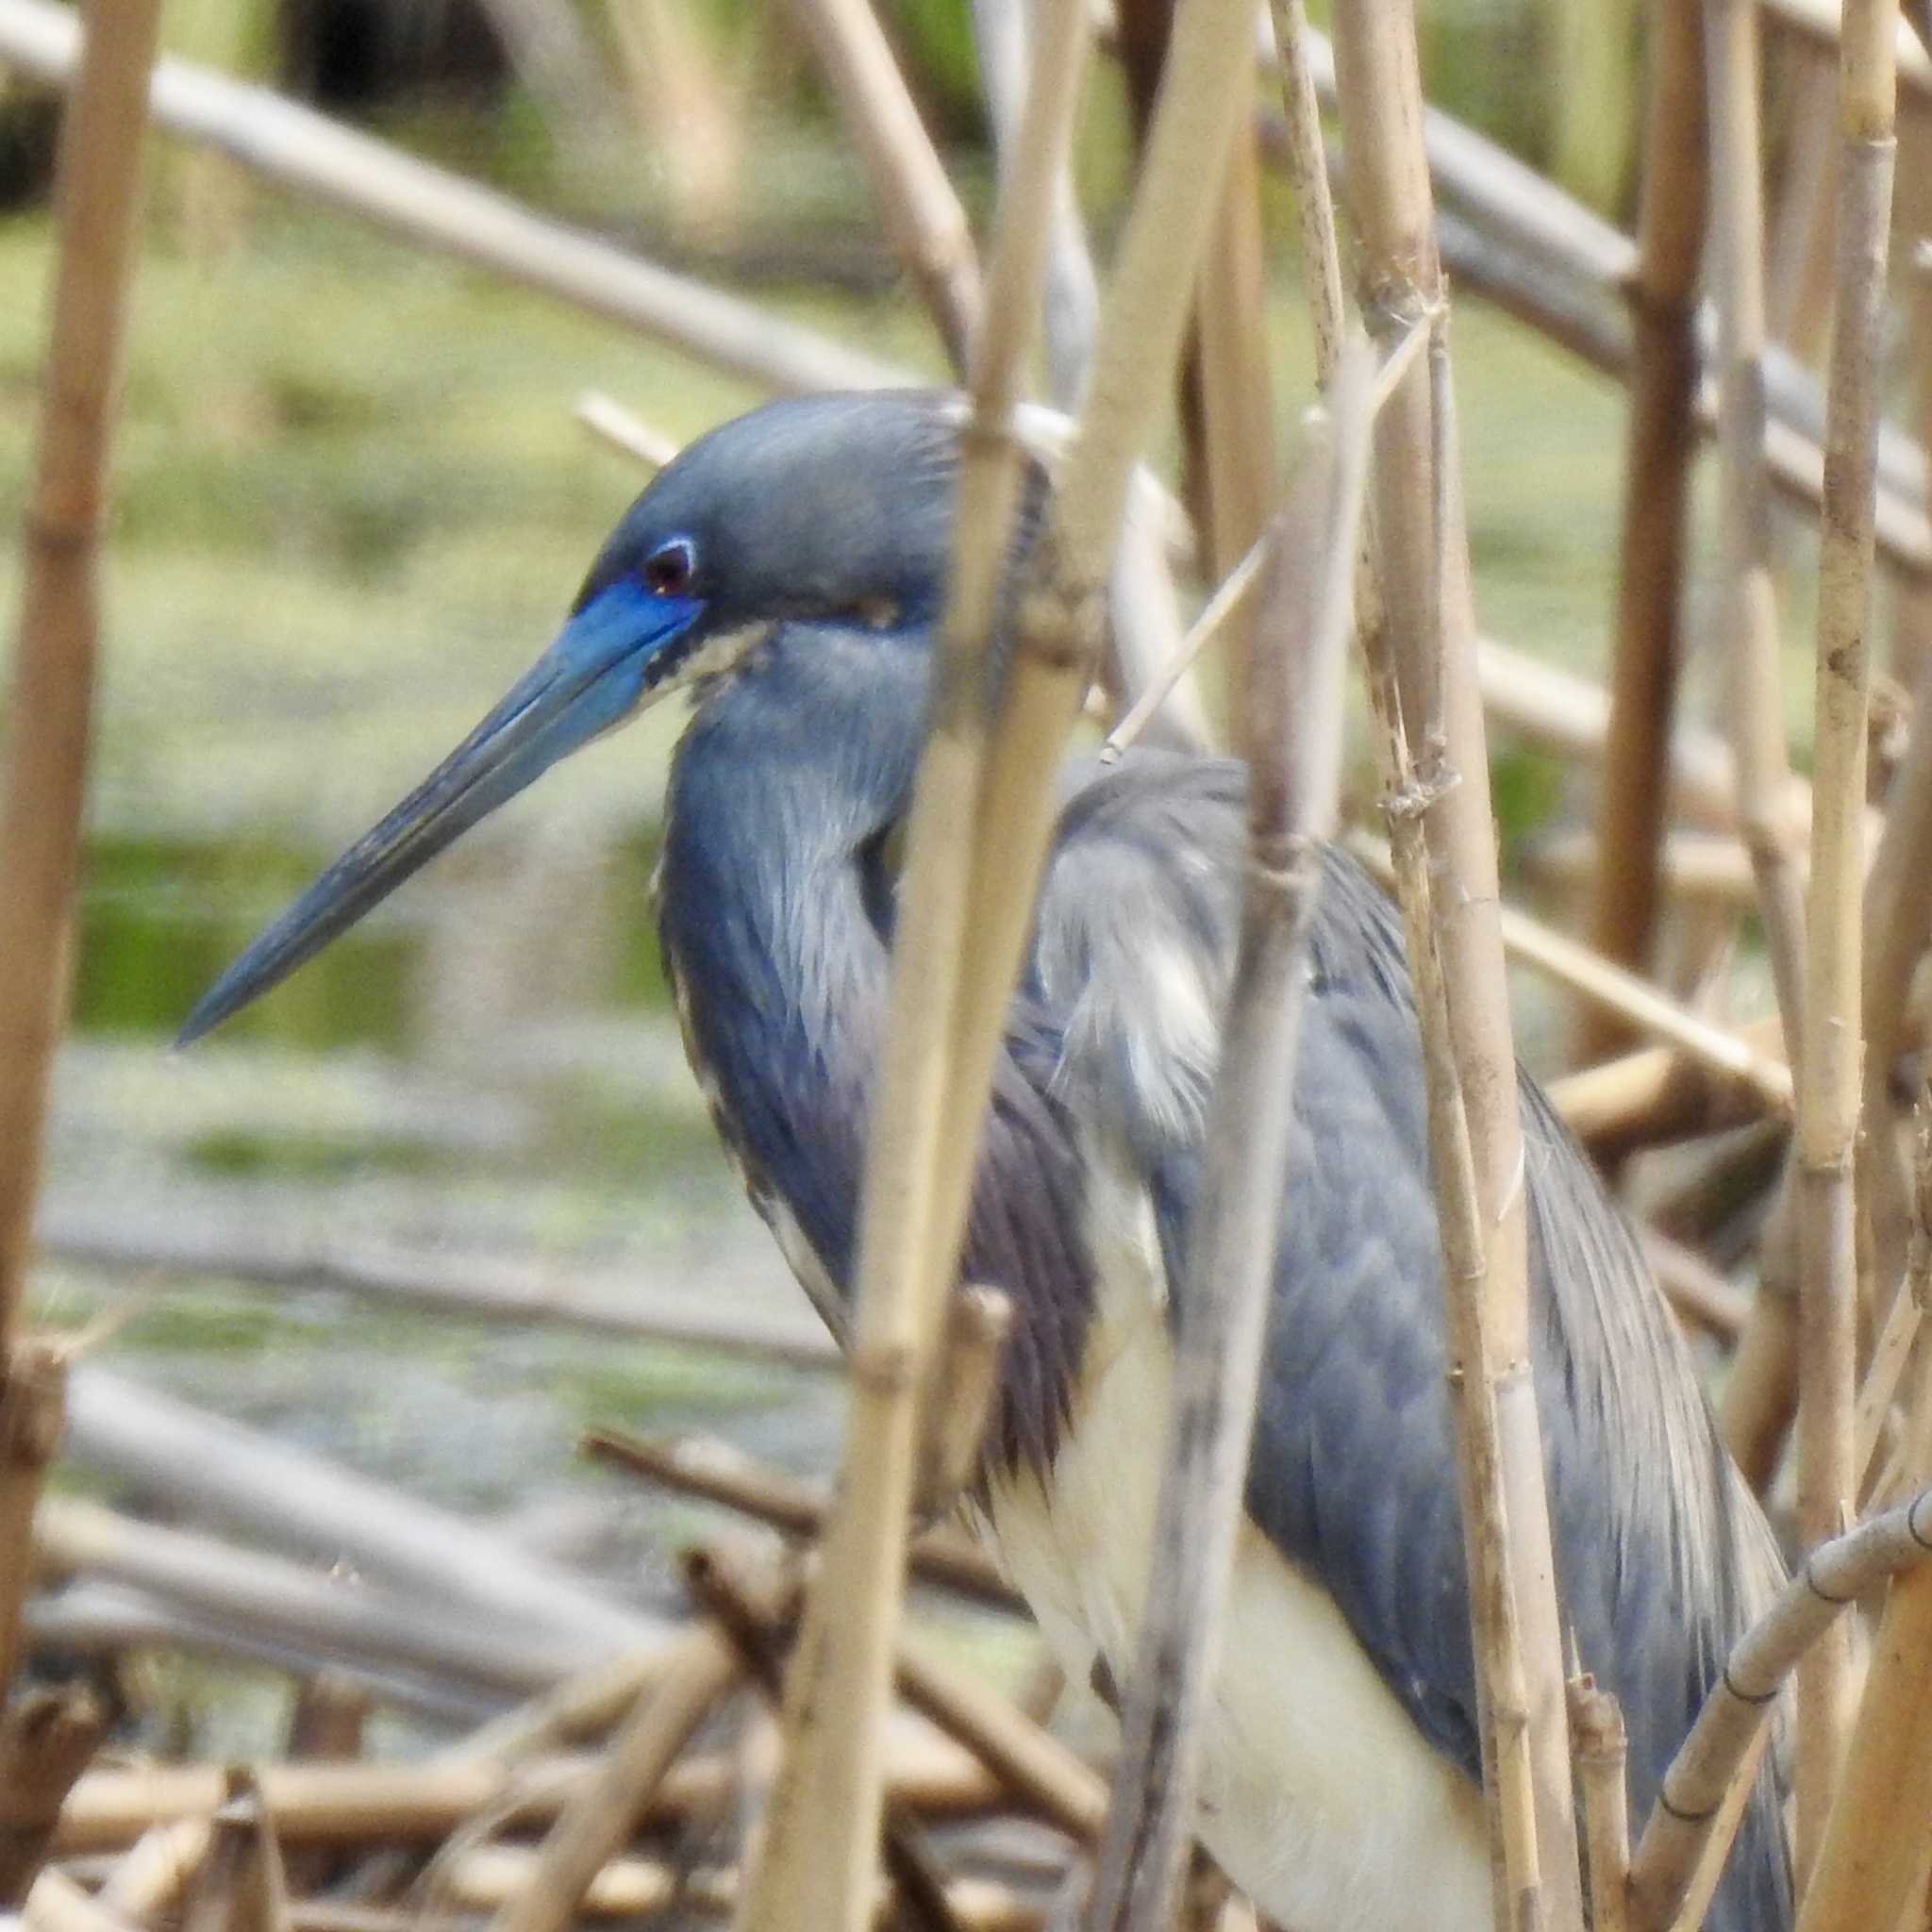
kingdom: Animalia
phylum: Chordata
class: Aves
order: Pelecaniformes
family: Ardeidae
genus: Egretta
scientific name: Egretta tricolor
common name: Tricolored heron
